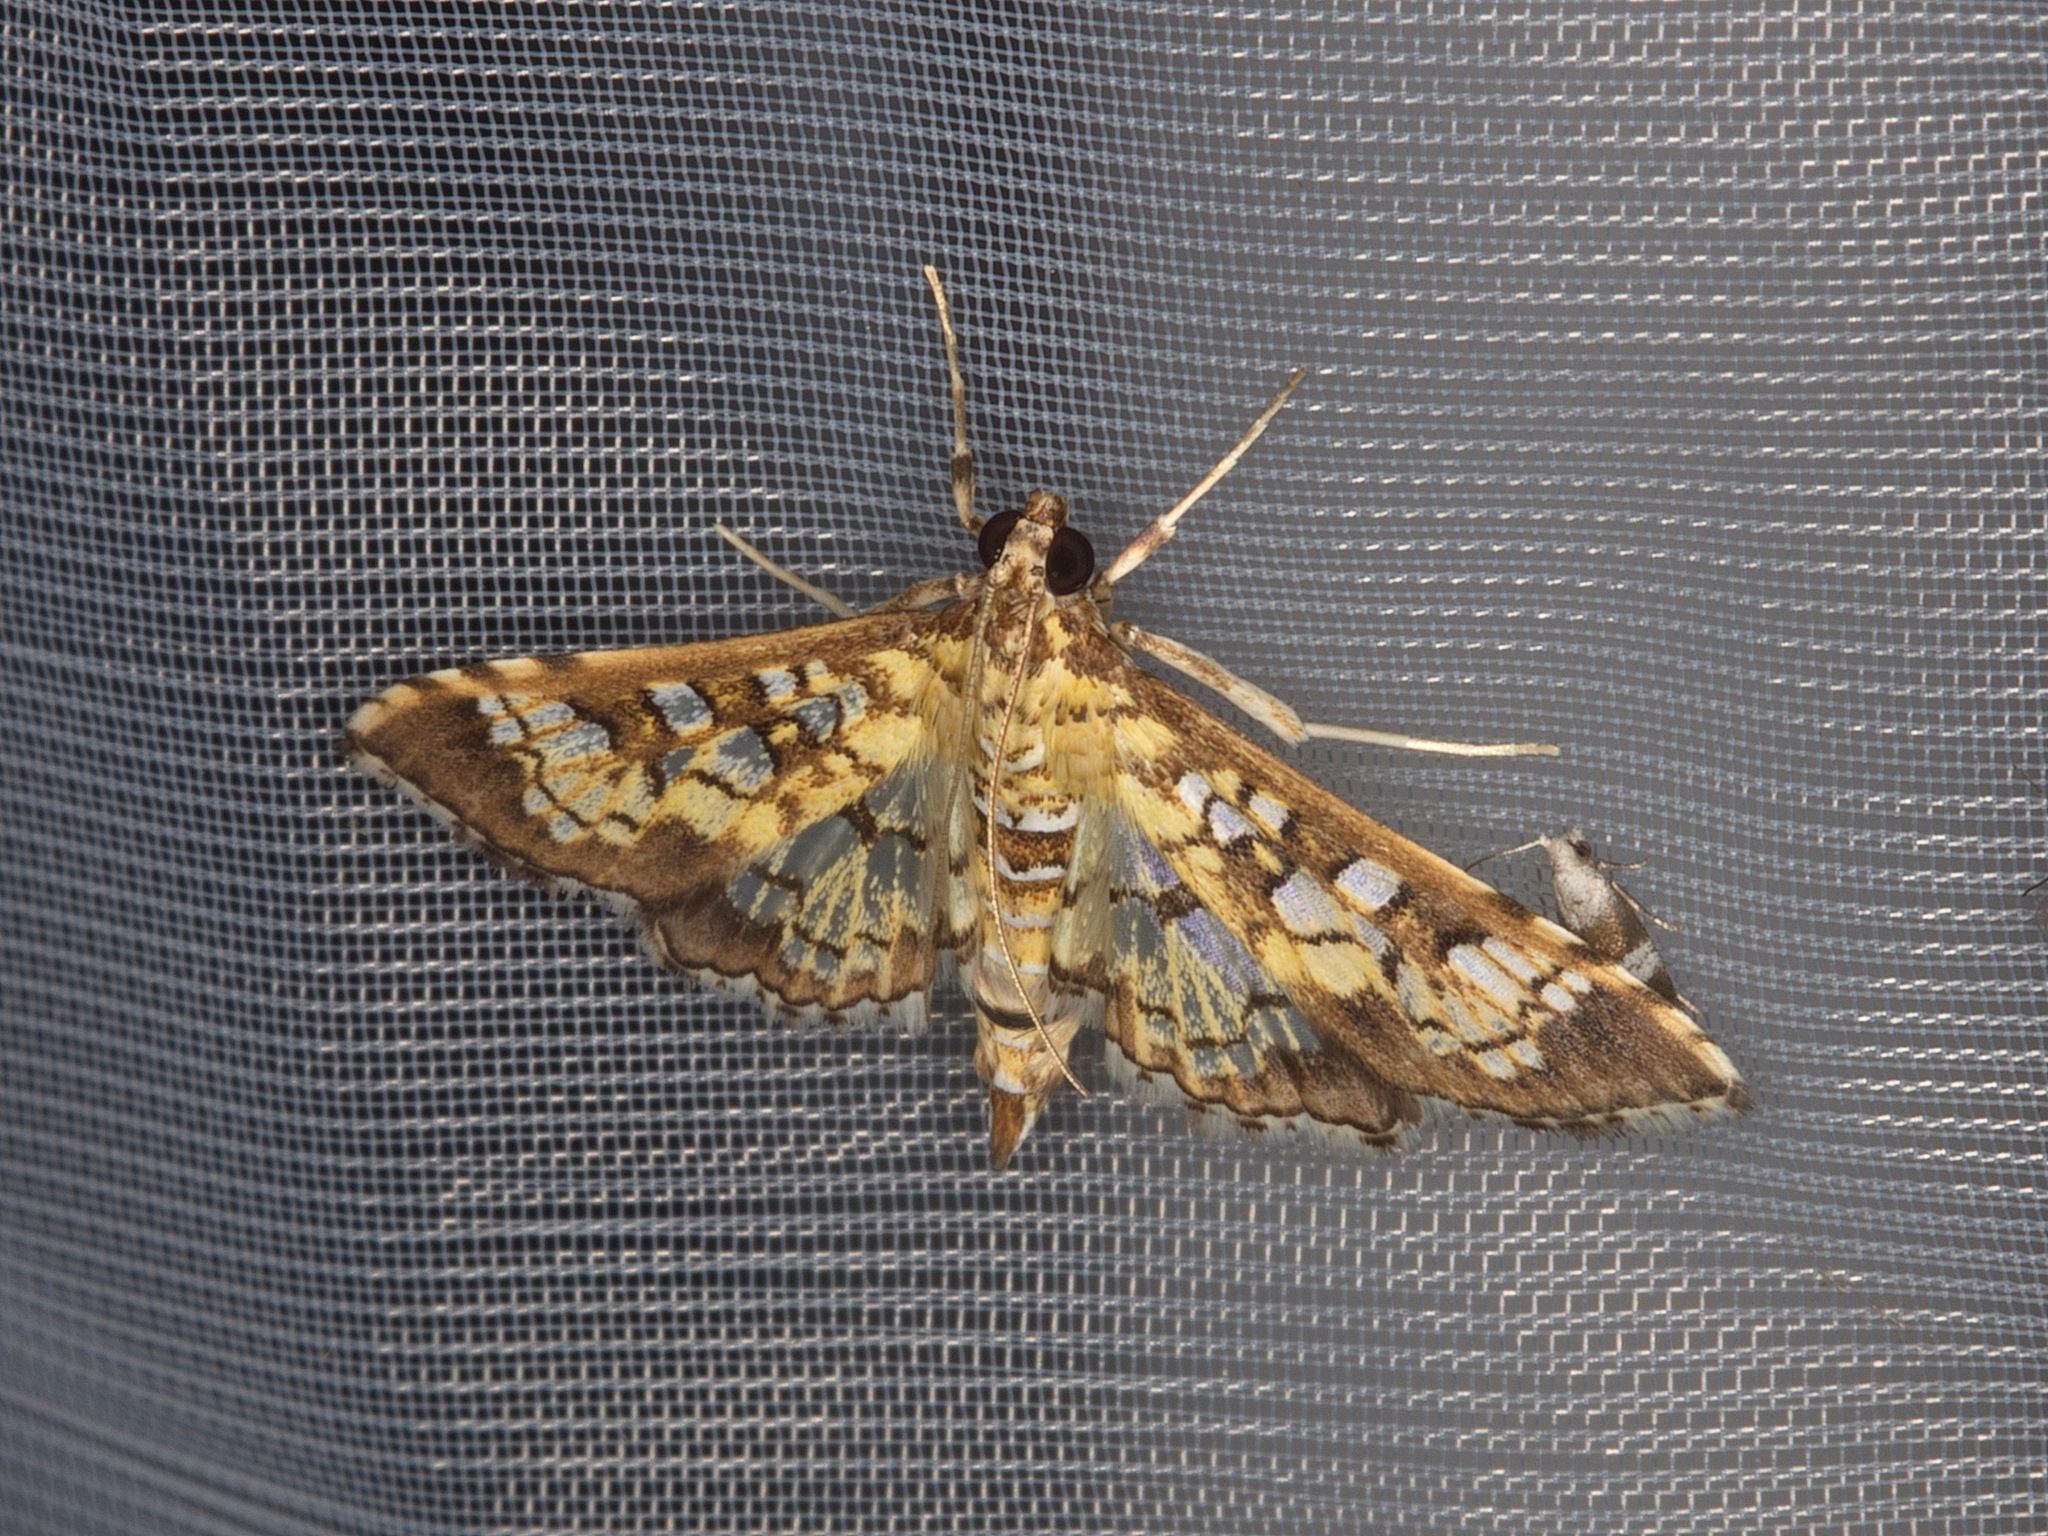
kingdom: Animalia
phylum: Arthropoda
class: Insecta
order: Lepidoptera
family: Crambidae
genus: Samea
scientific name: Samea ecclesialis
